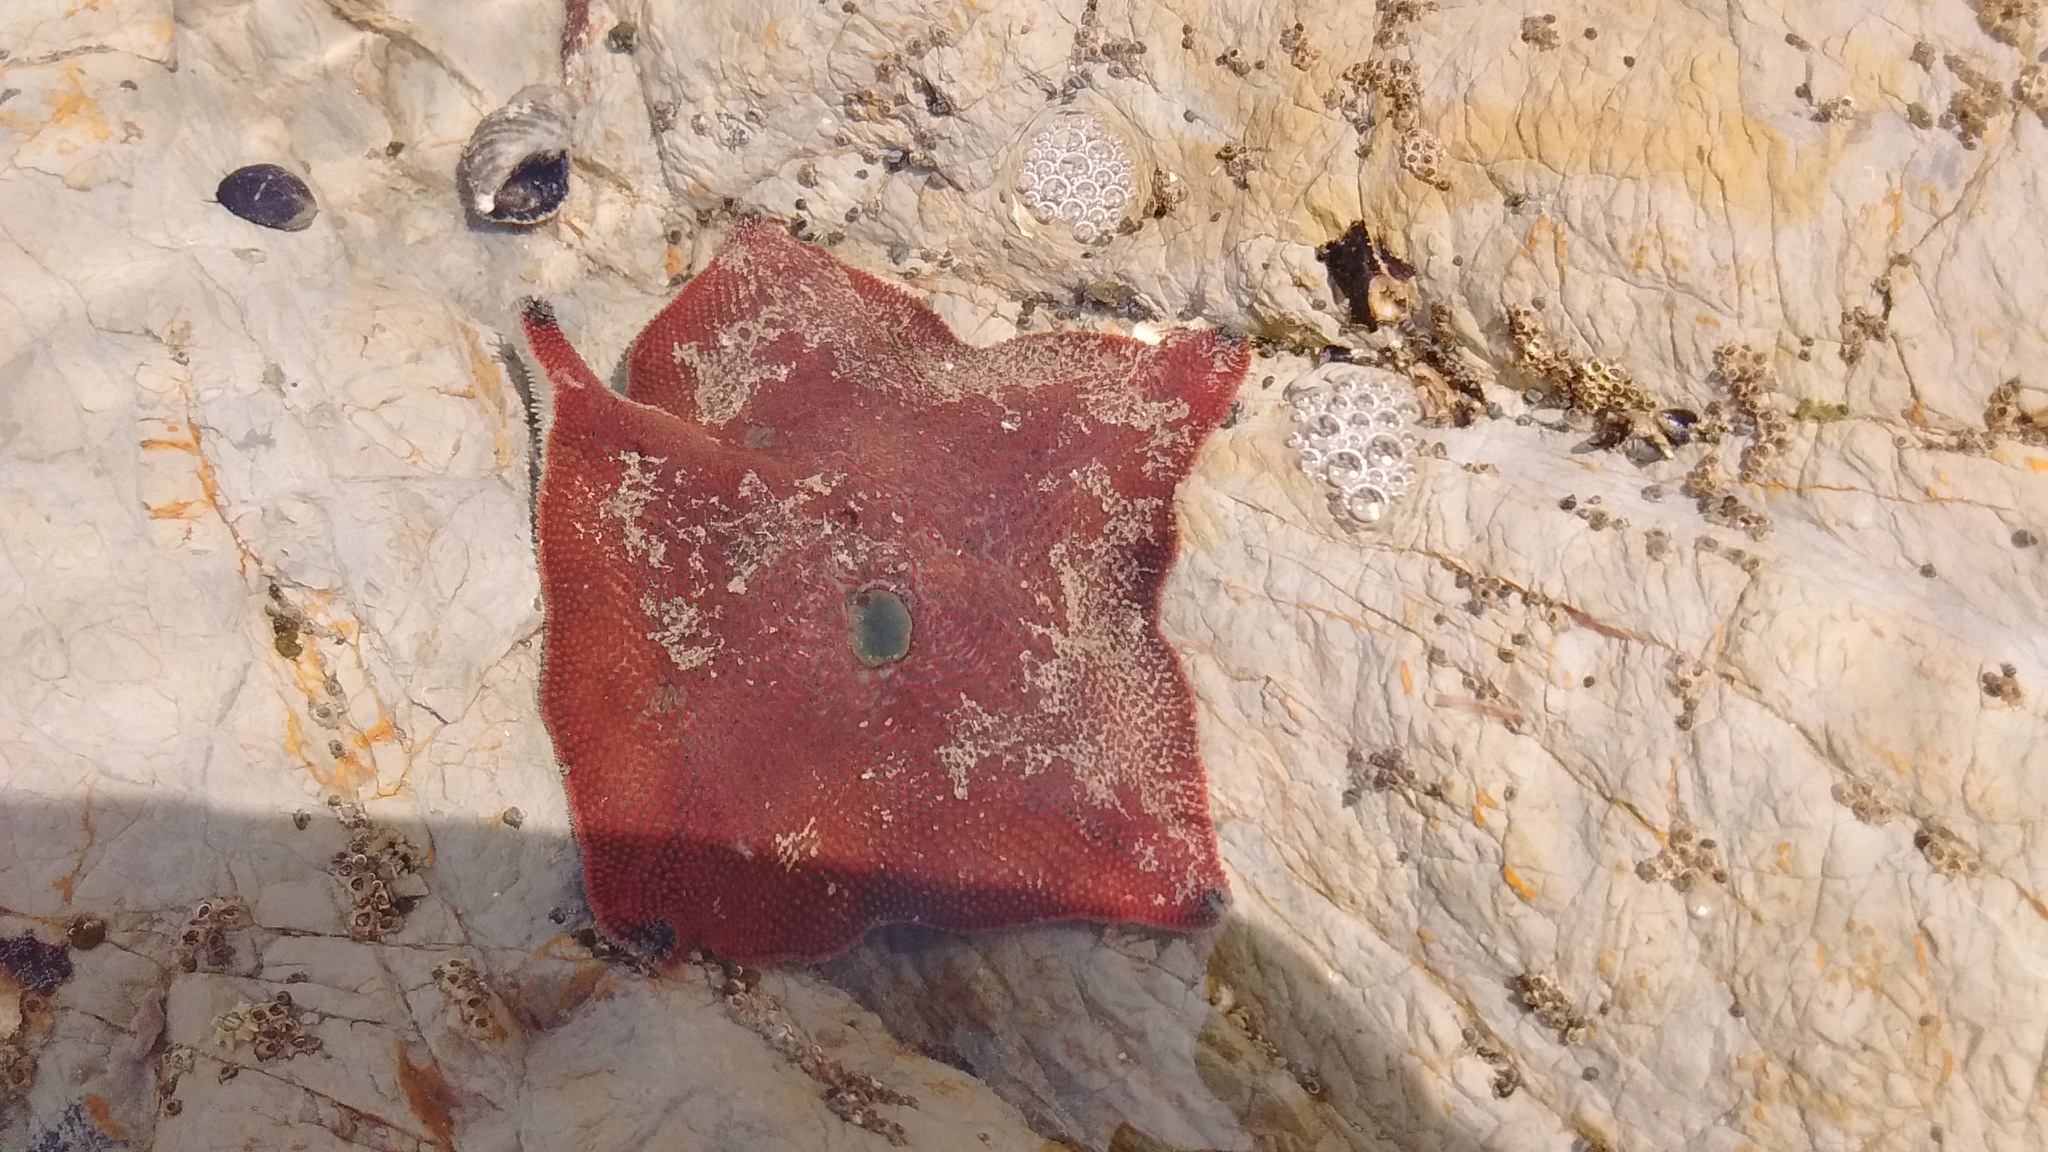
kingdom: Animalia
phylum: Echinodermata
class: Asteroidea
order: Valvatida
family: Asterinidae
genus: Patiriella
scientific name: Patiriella regularis
